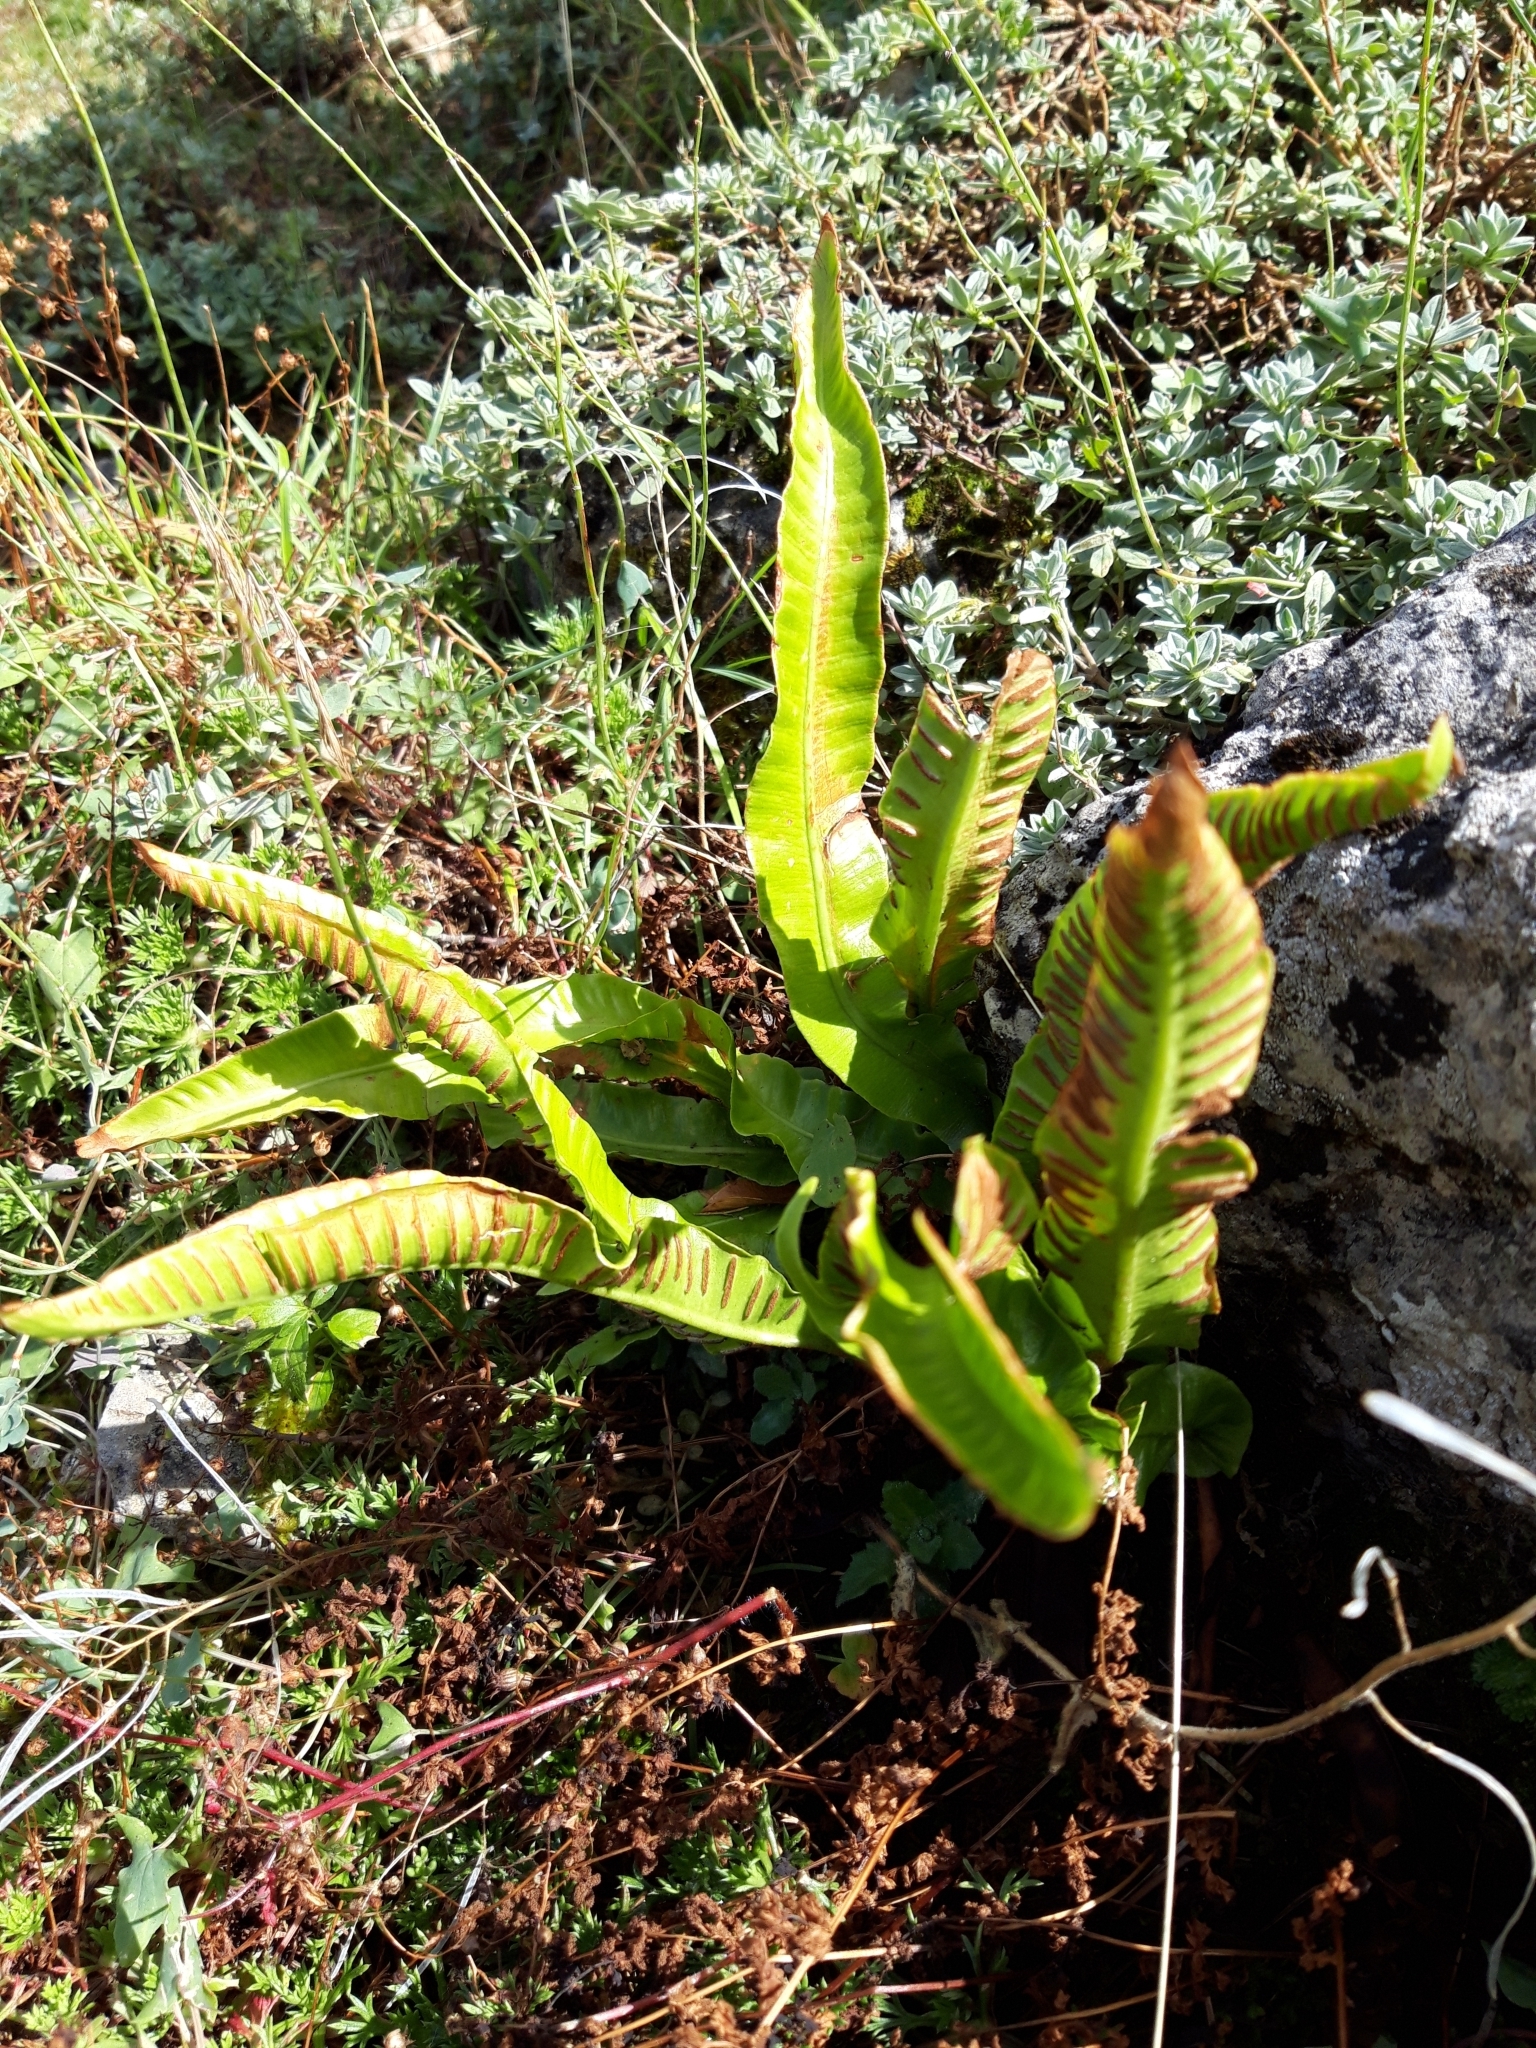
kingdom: Plantae
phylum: Tracheophyta
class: Polypodiopsida
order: Polypodiales
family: Aspleniaceae
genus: Asplenium
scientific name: Asplenium scolopendrium
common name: Hart's-tongue fern
